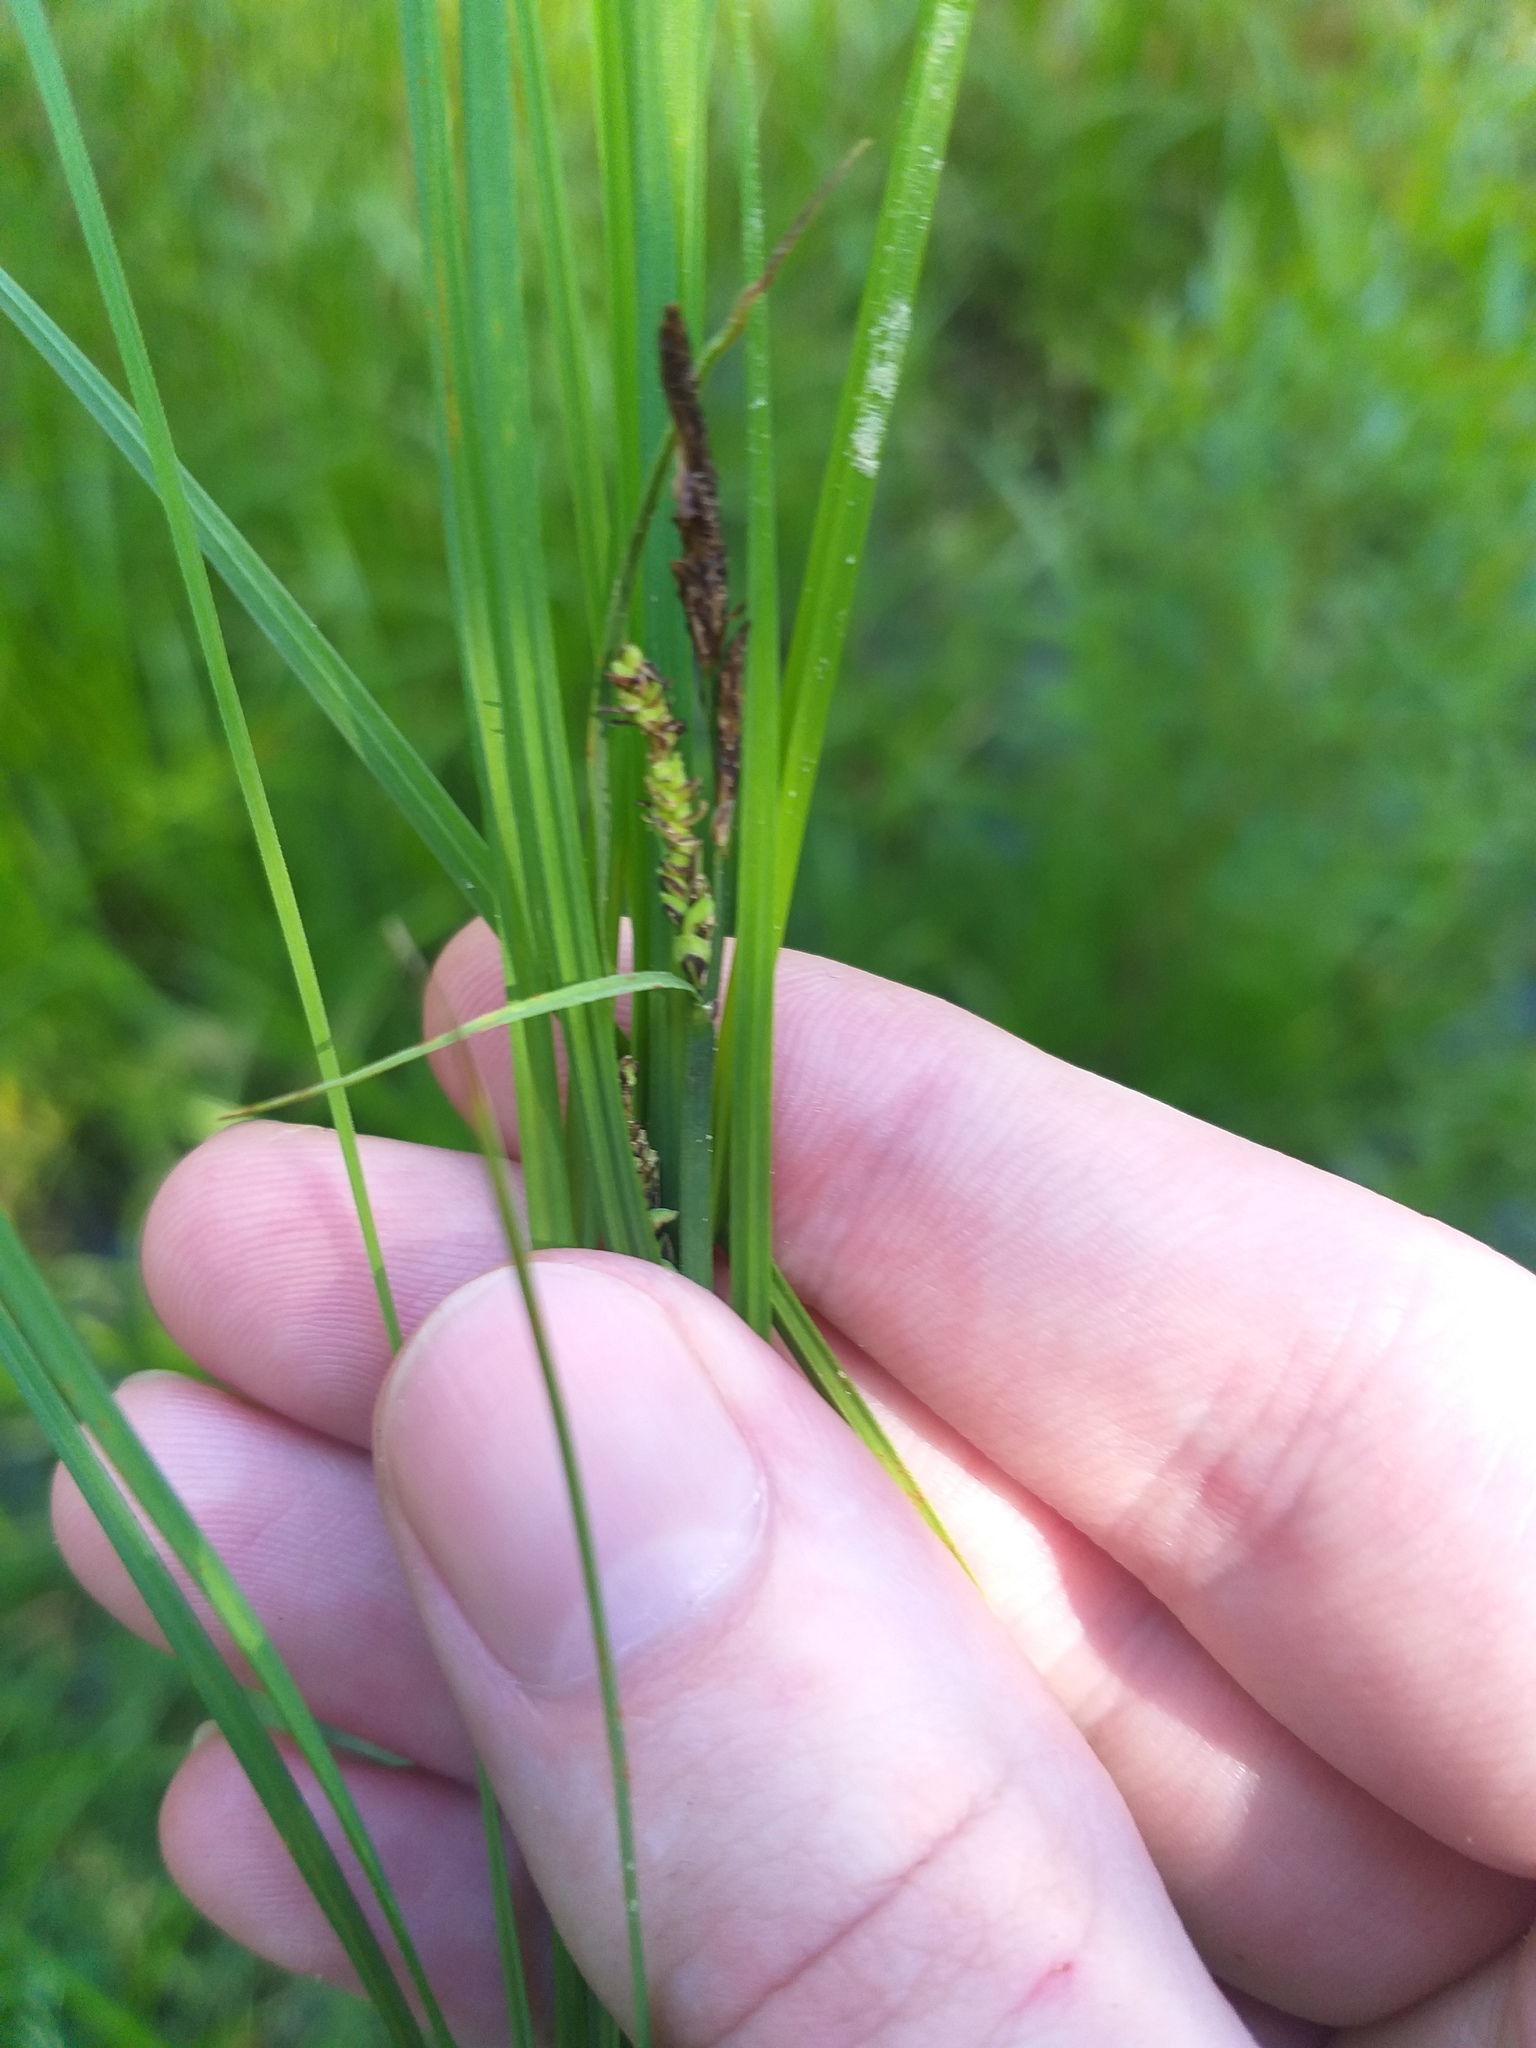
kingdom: Plantae
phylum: Tracheophyta
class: Liliopsida
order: Poales
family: Cyperaceae
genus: Carex
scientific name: Carex nigra
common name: Common sedge
